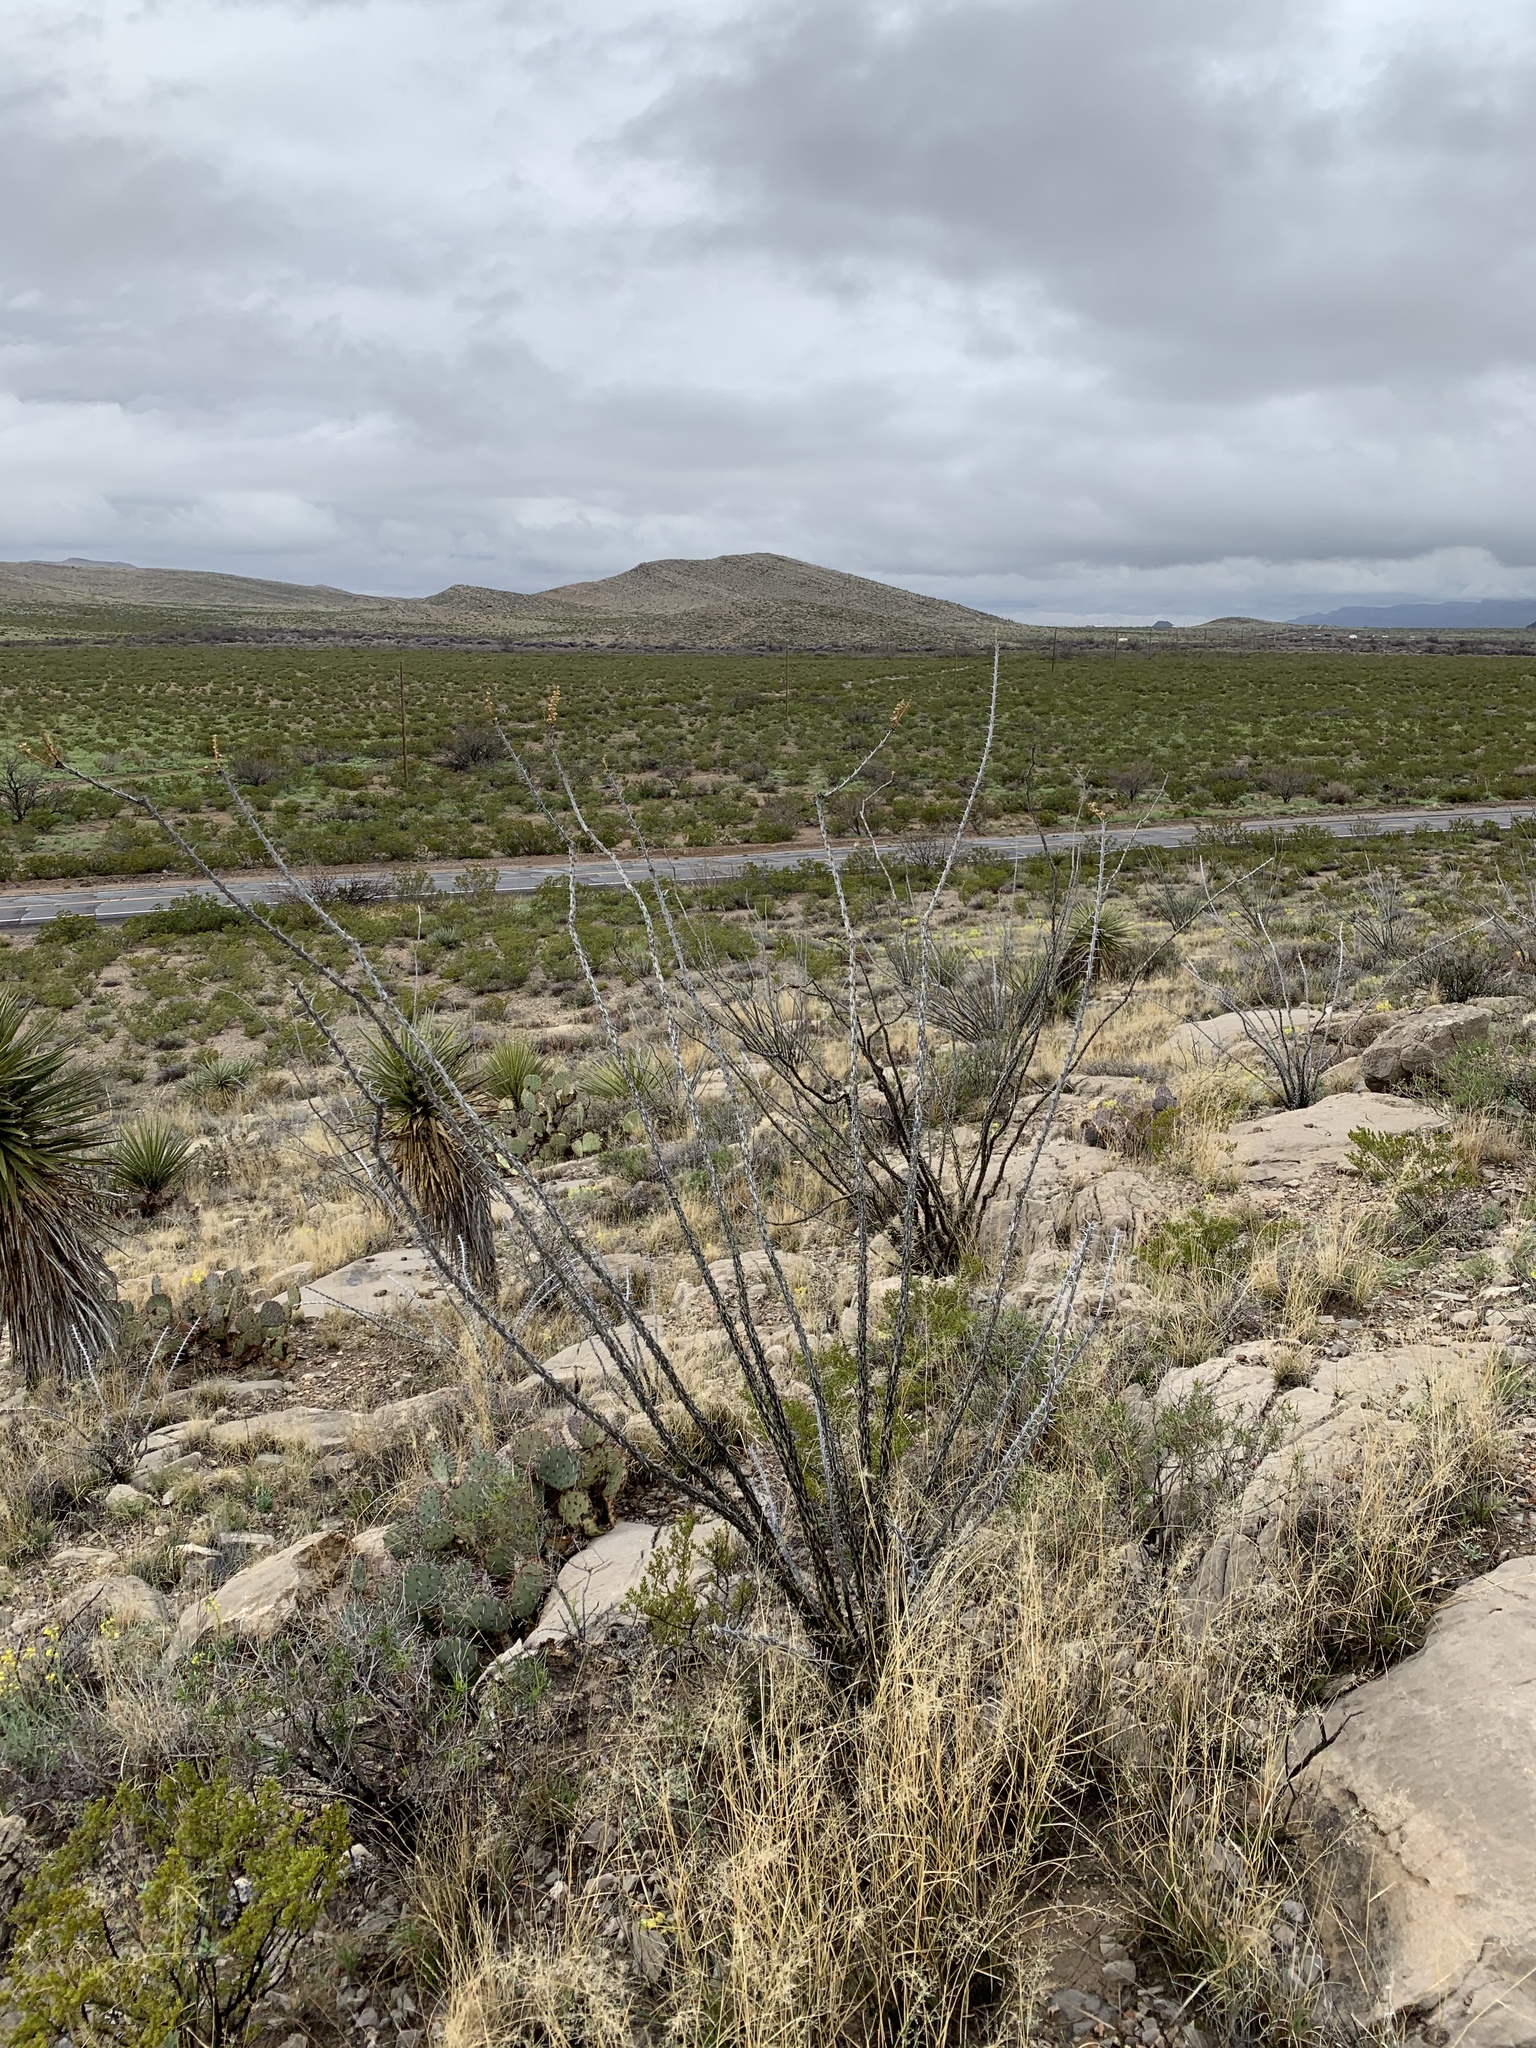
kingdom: Plantae
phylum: Tracheophyta
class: Magnoliopsida
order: Ericales
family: Fouquieriaceae
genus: Fouquieria
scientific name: Fouquieria splendens
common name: Vine-cactus
